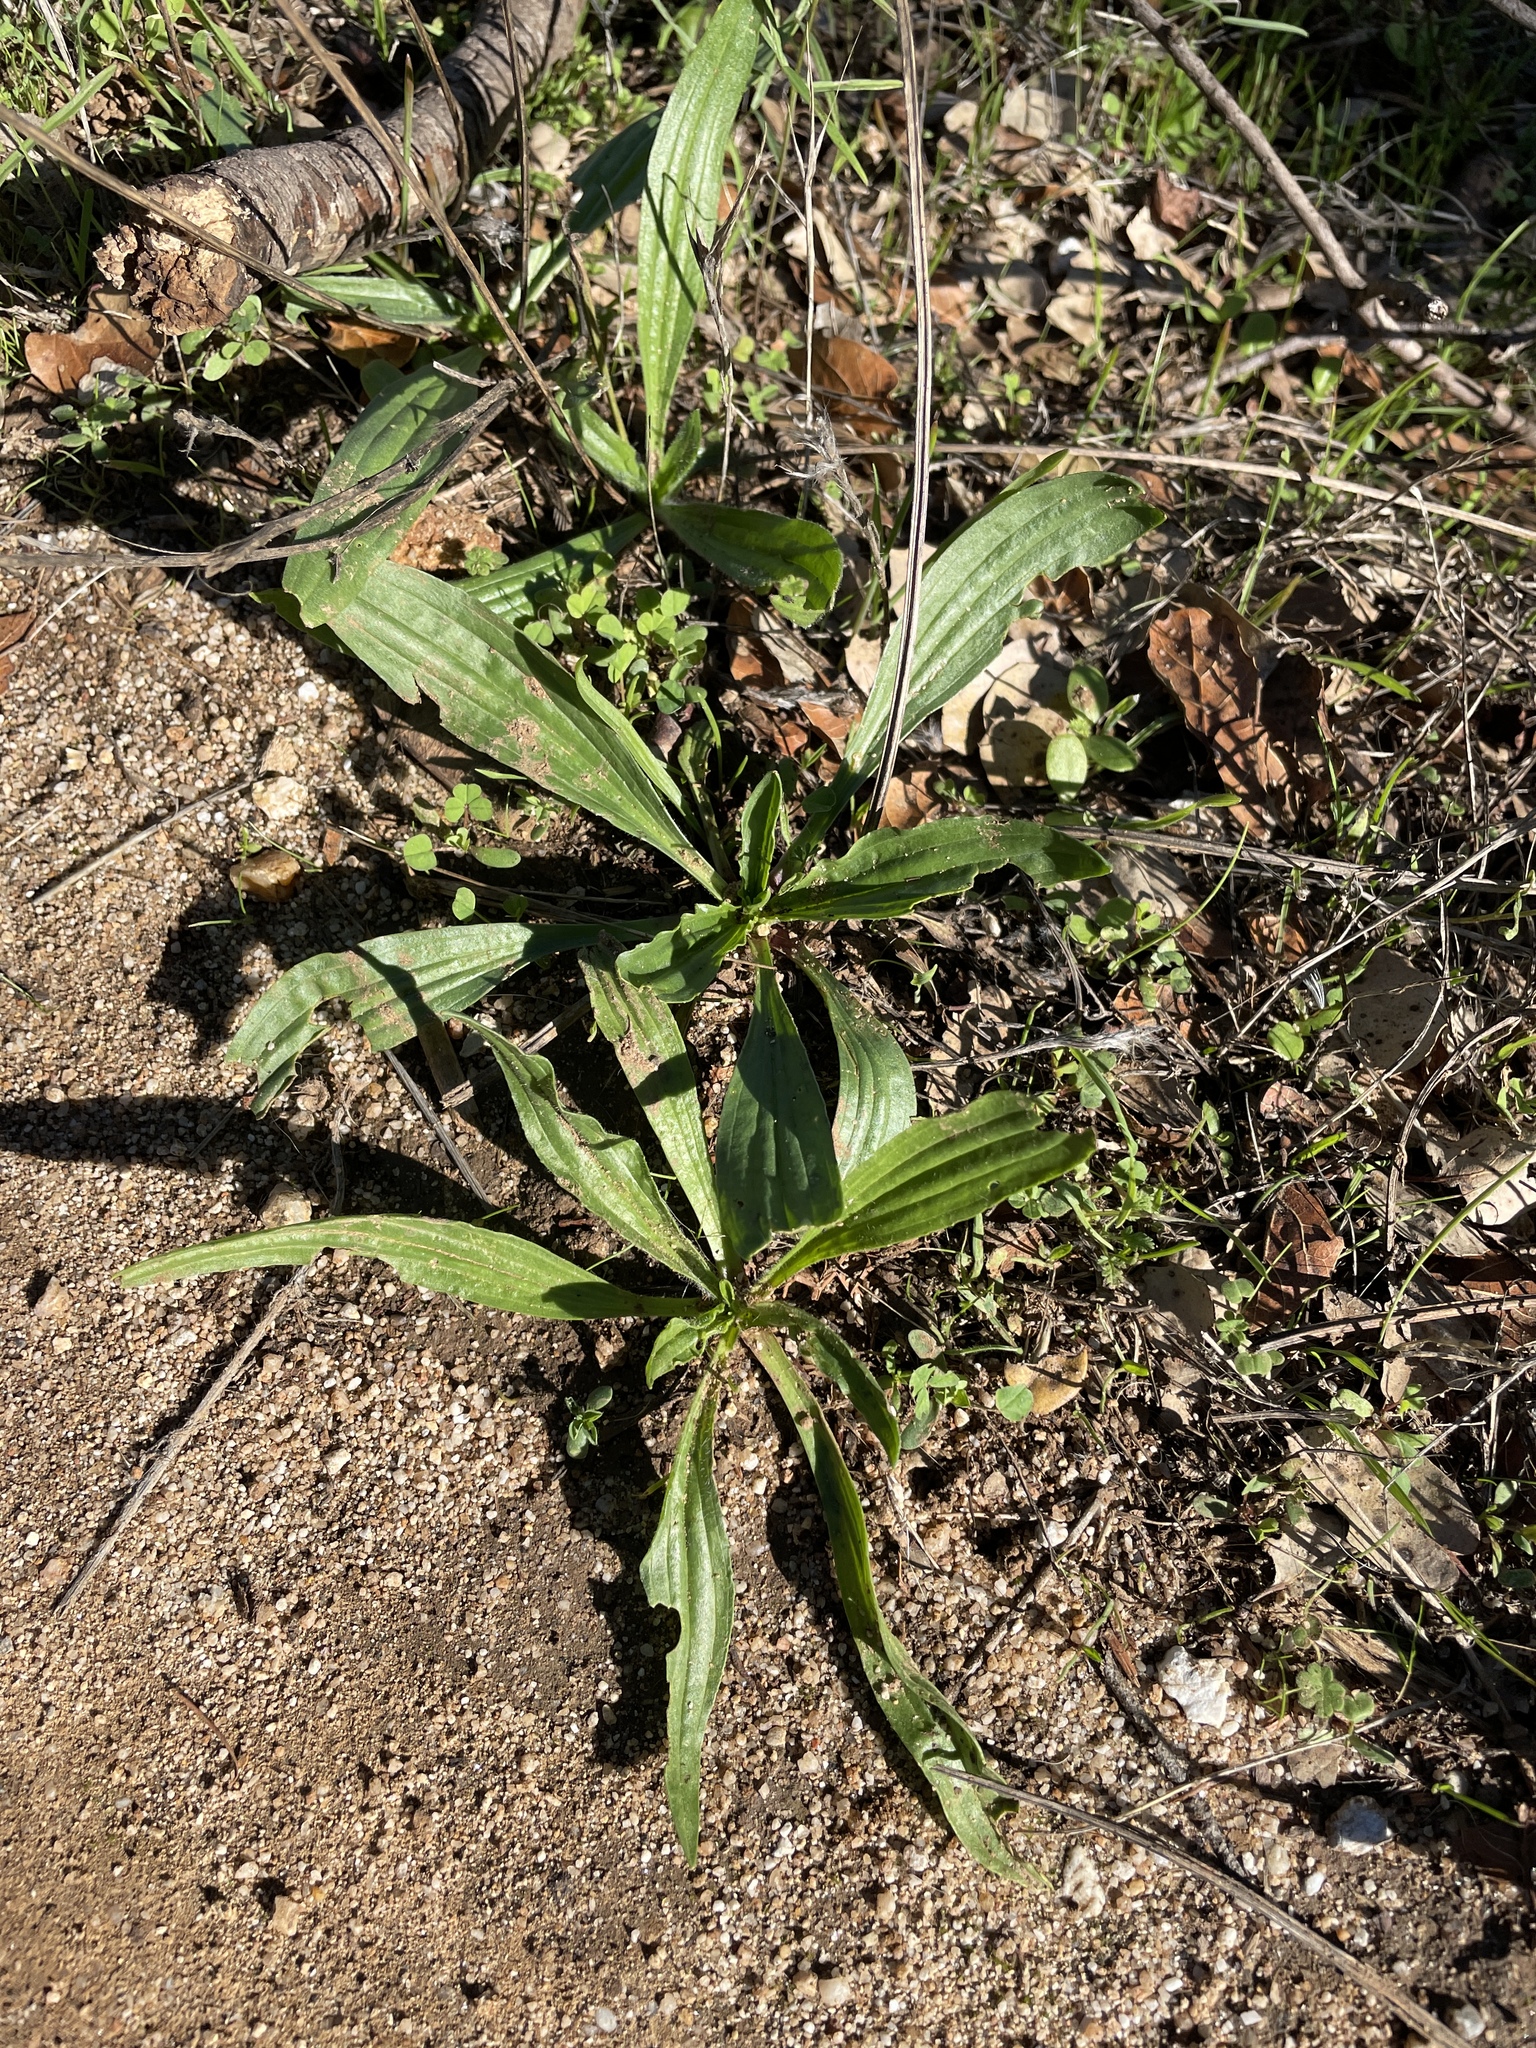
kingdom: Plantae
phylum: Tracheophyta
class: Magnoliopsida
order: Lamiales
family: Plantaginaceae
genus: Plantago
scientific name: Plantago lanceolata
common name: Ribwort plantain
